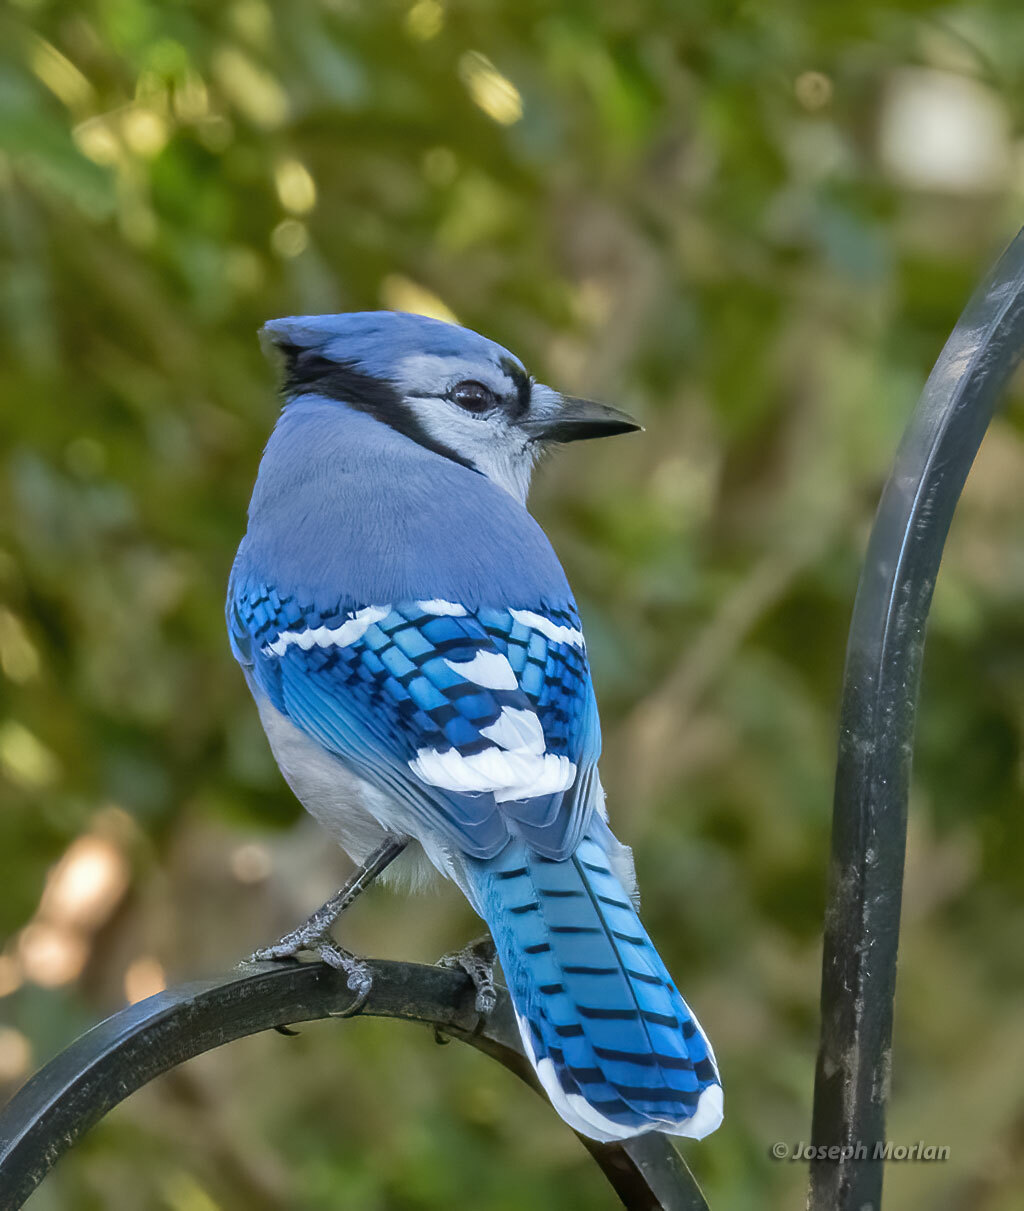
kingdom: Animalia
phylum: Chordata
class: Aves
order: Passeriformes
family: Corvidae
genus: Cyanocitta
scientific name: Cyanocitta cristata
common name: Blue jay
